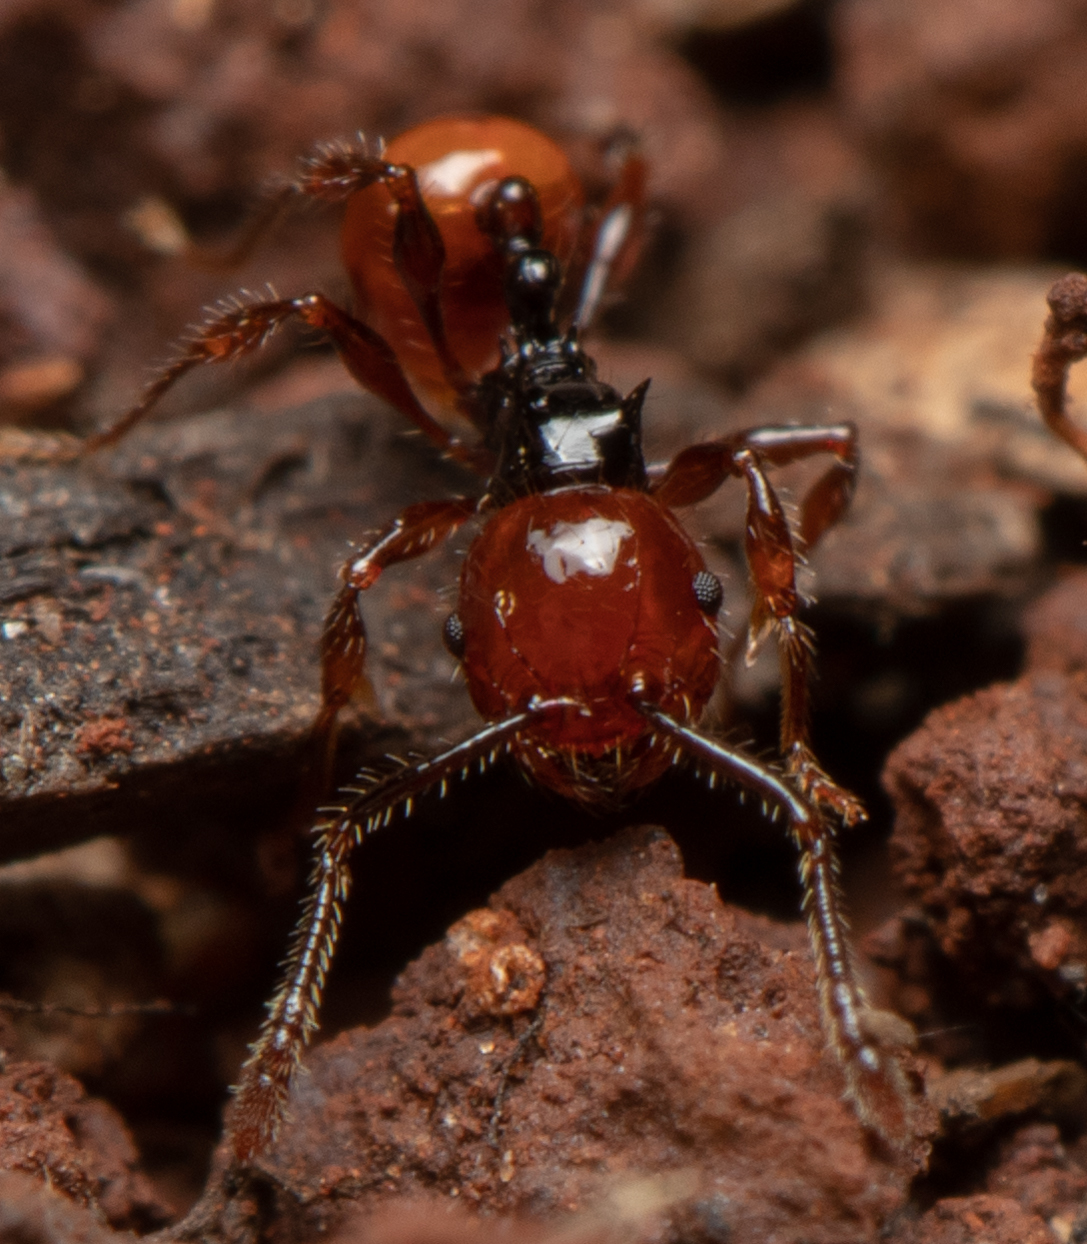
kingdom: Animalia
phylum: Arthropoda
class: Insecta
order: Hymenoptera
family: Formicidae
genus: Pristomyrmex
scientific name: Pristomyrmex quadridentatus
